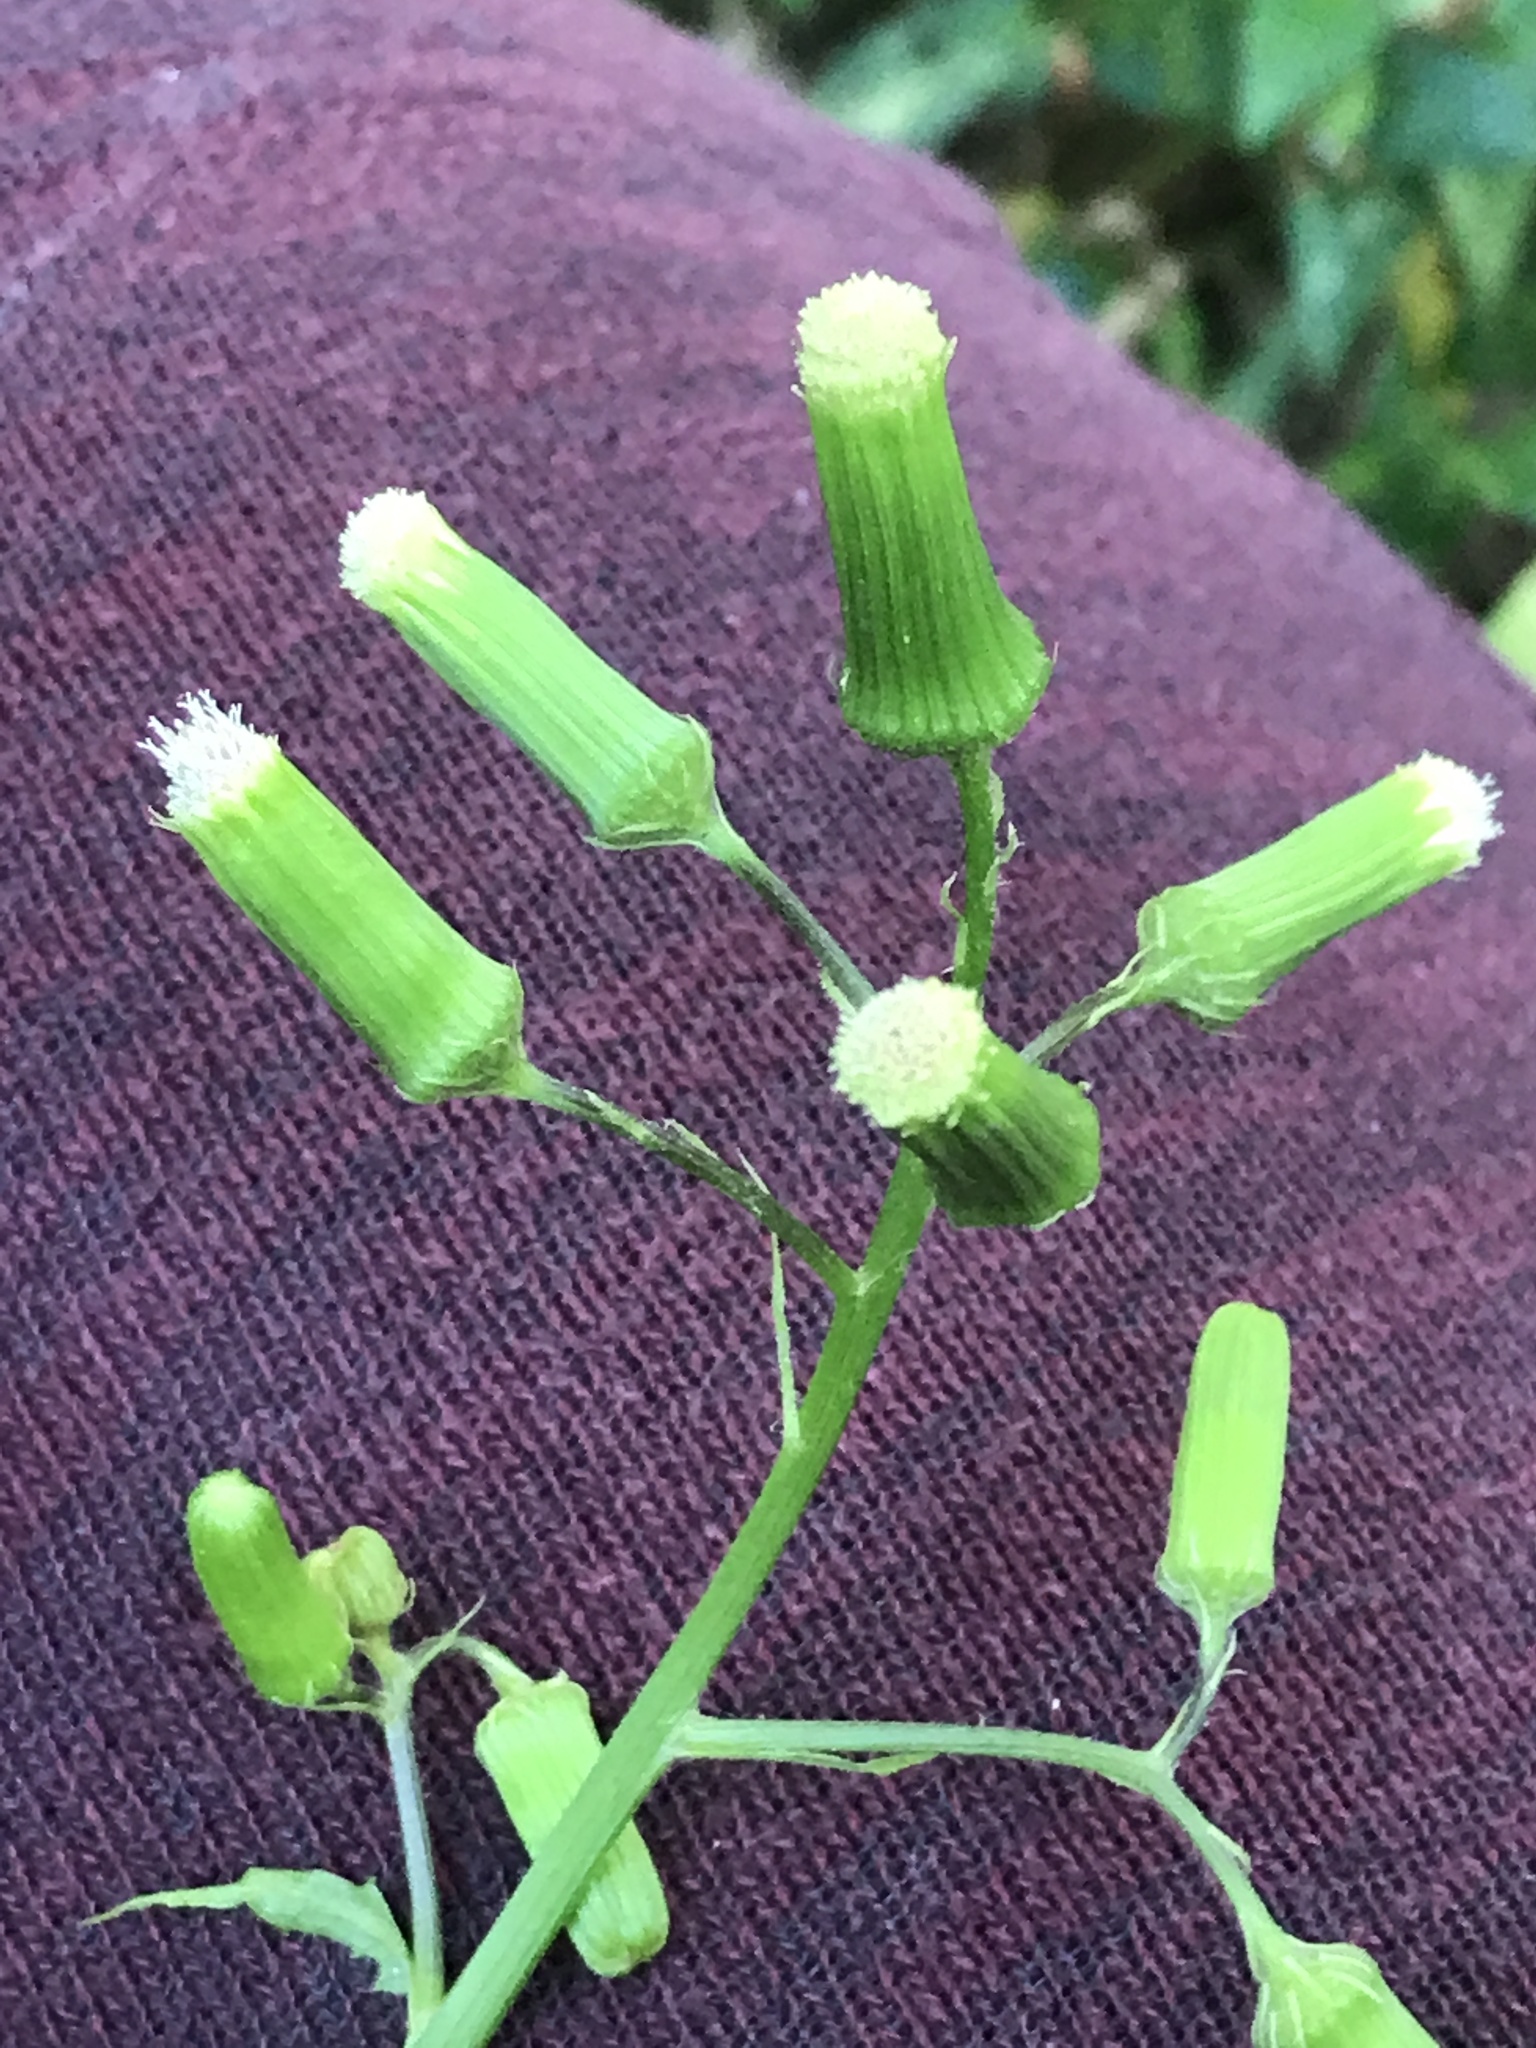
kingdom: Plantae
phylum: Tracheophyta
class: Magnoliopsida
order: Asterales
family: Asteraceae
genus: Erechtites
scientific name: Erechtites hieraciifolius
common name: American burnweed
